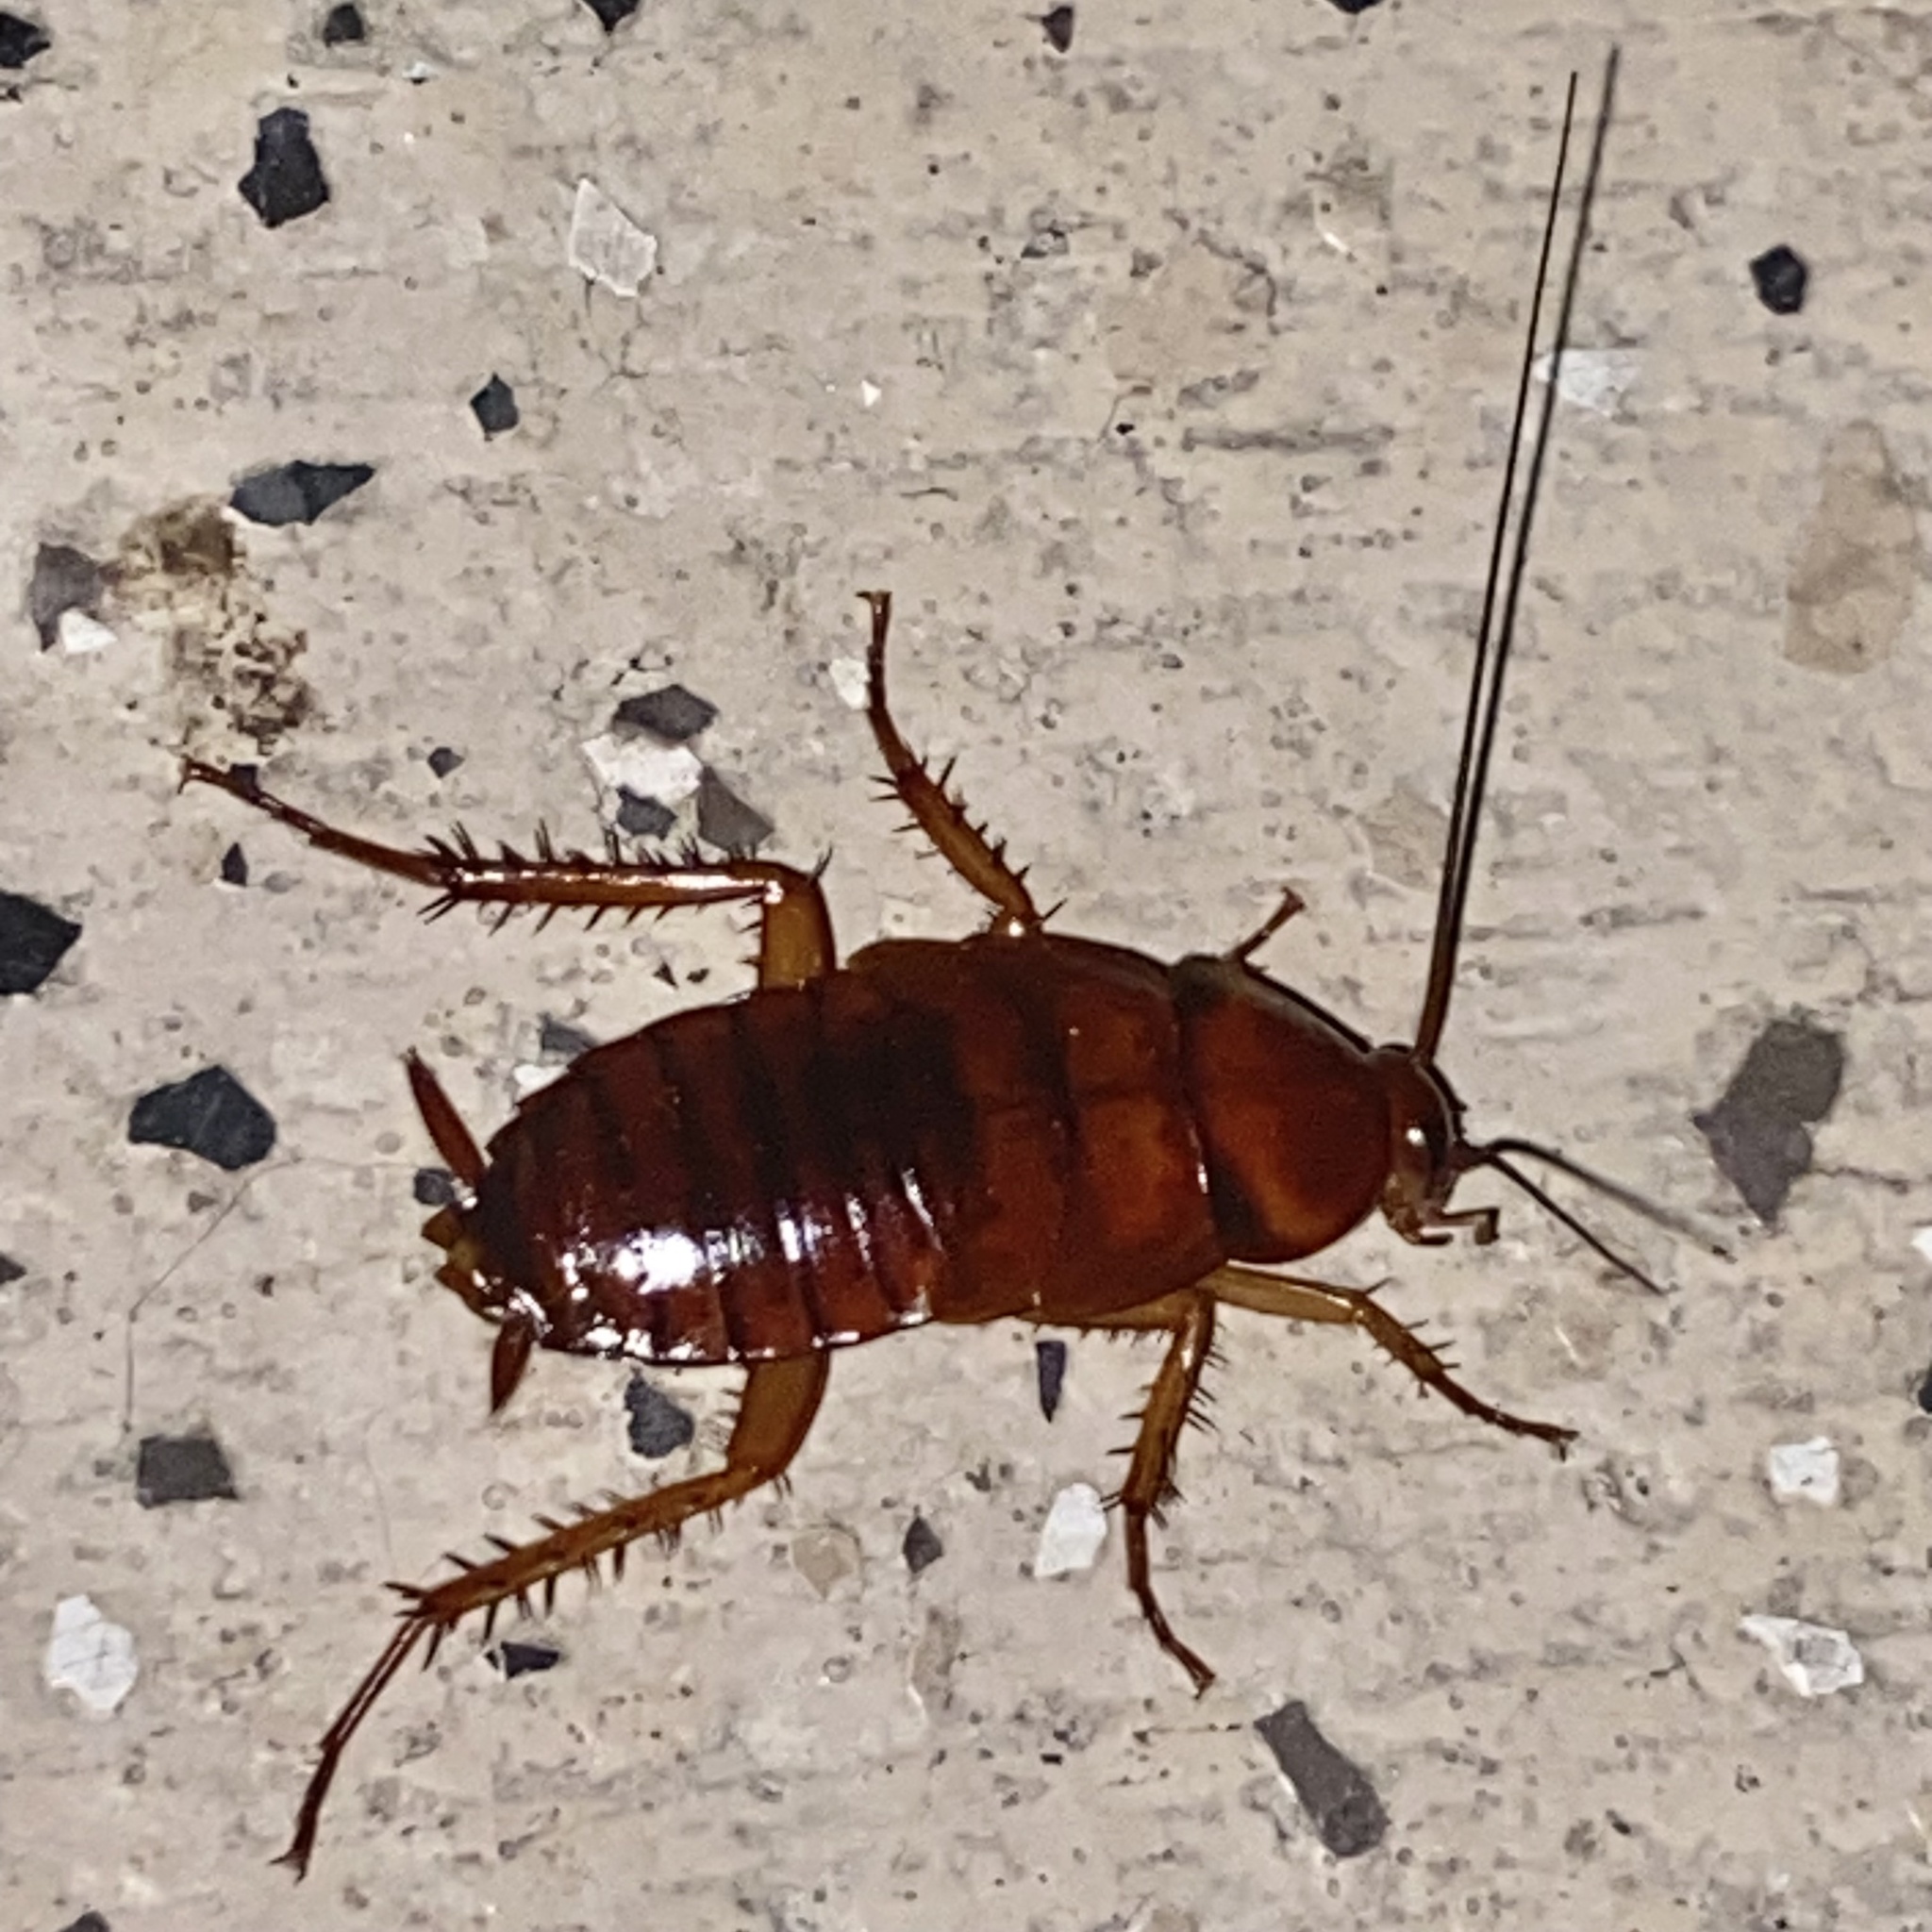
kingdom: Animalia
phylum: Arthropoda
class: Insecta
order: Blattodea
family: Blattidae
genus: Periplaneta
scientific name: Periplaneta americana
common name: American cockroach
